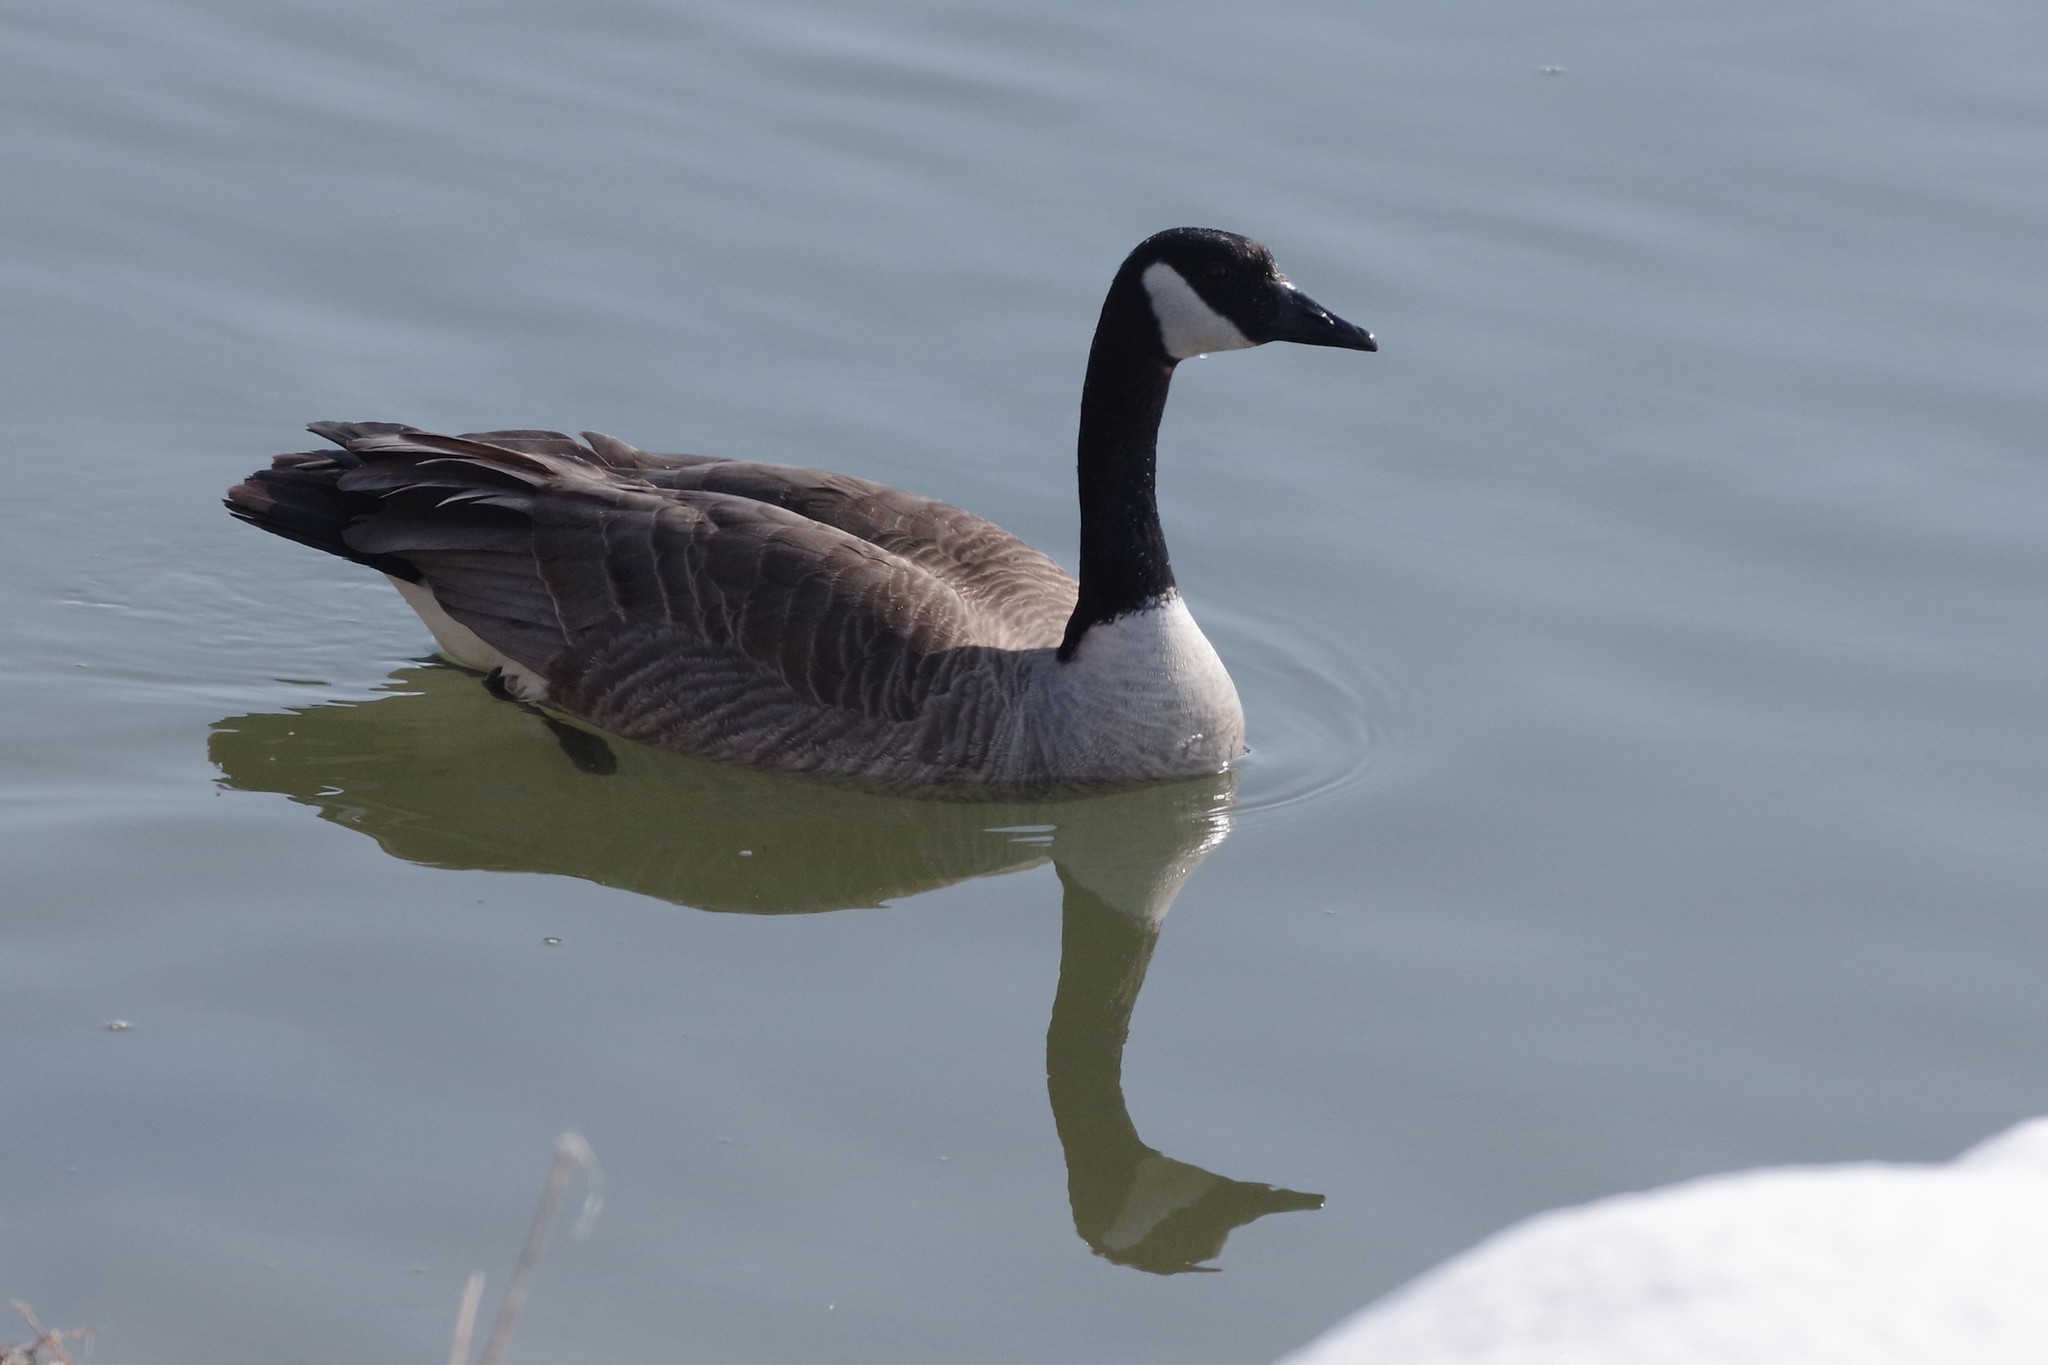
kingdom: Animalia
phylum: Chordata
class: Aves
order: Anseriformes
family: Anatidae
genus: Branta
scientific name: Branta canadensis
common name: Canada goose
